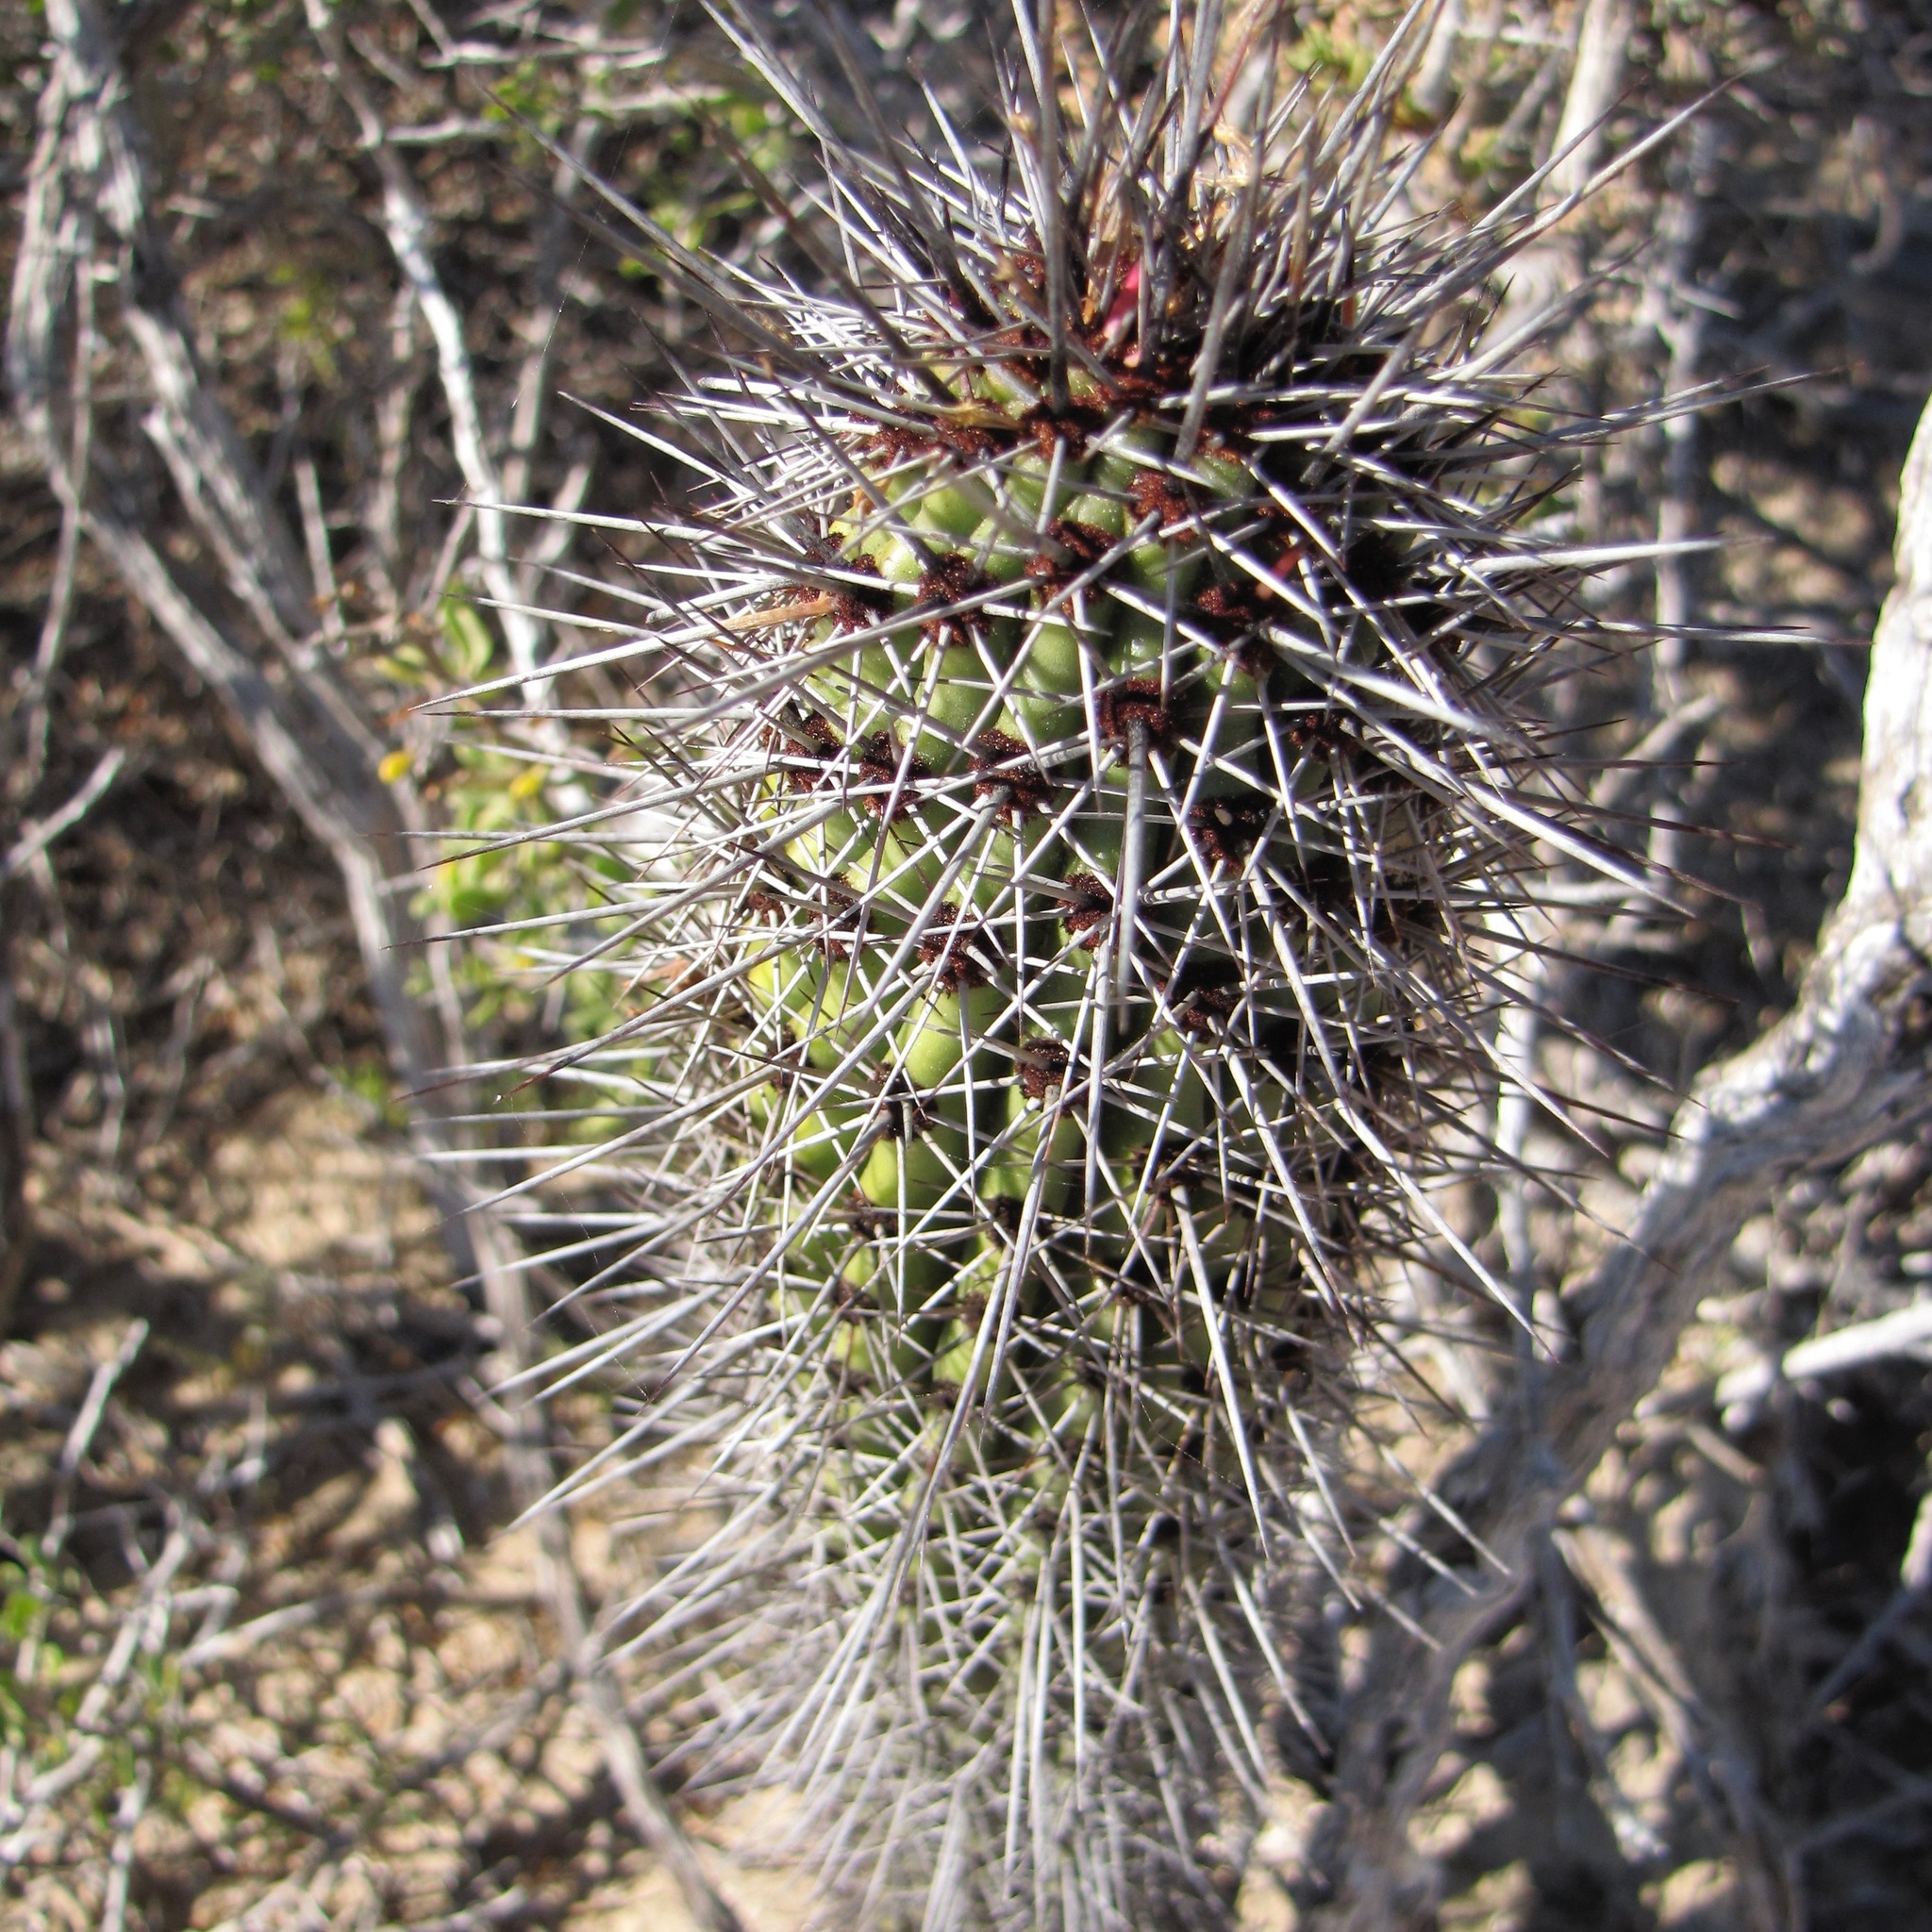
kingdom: Plantae
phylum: Tracheophyta
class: Magnoliopsida
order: Caryophyllales
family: Cactaceae
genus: Stenocereus
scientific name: Stenocereus thurberi
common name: Organ pipe cactus
